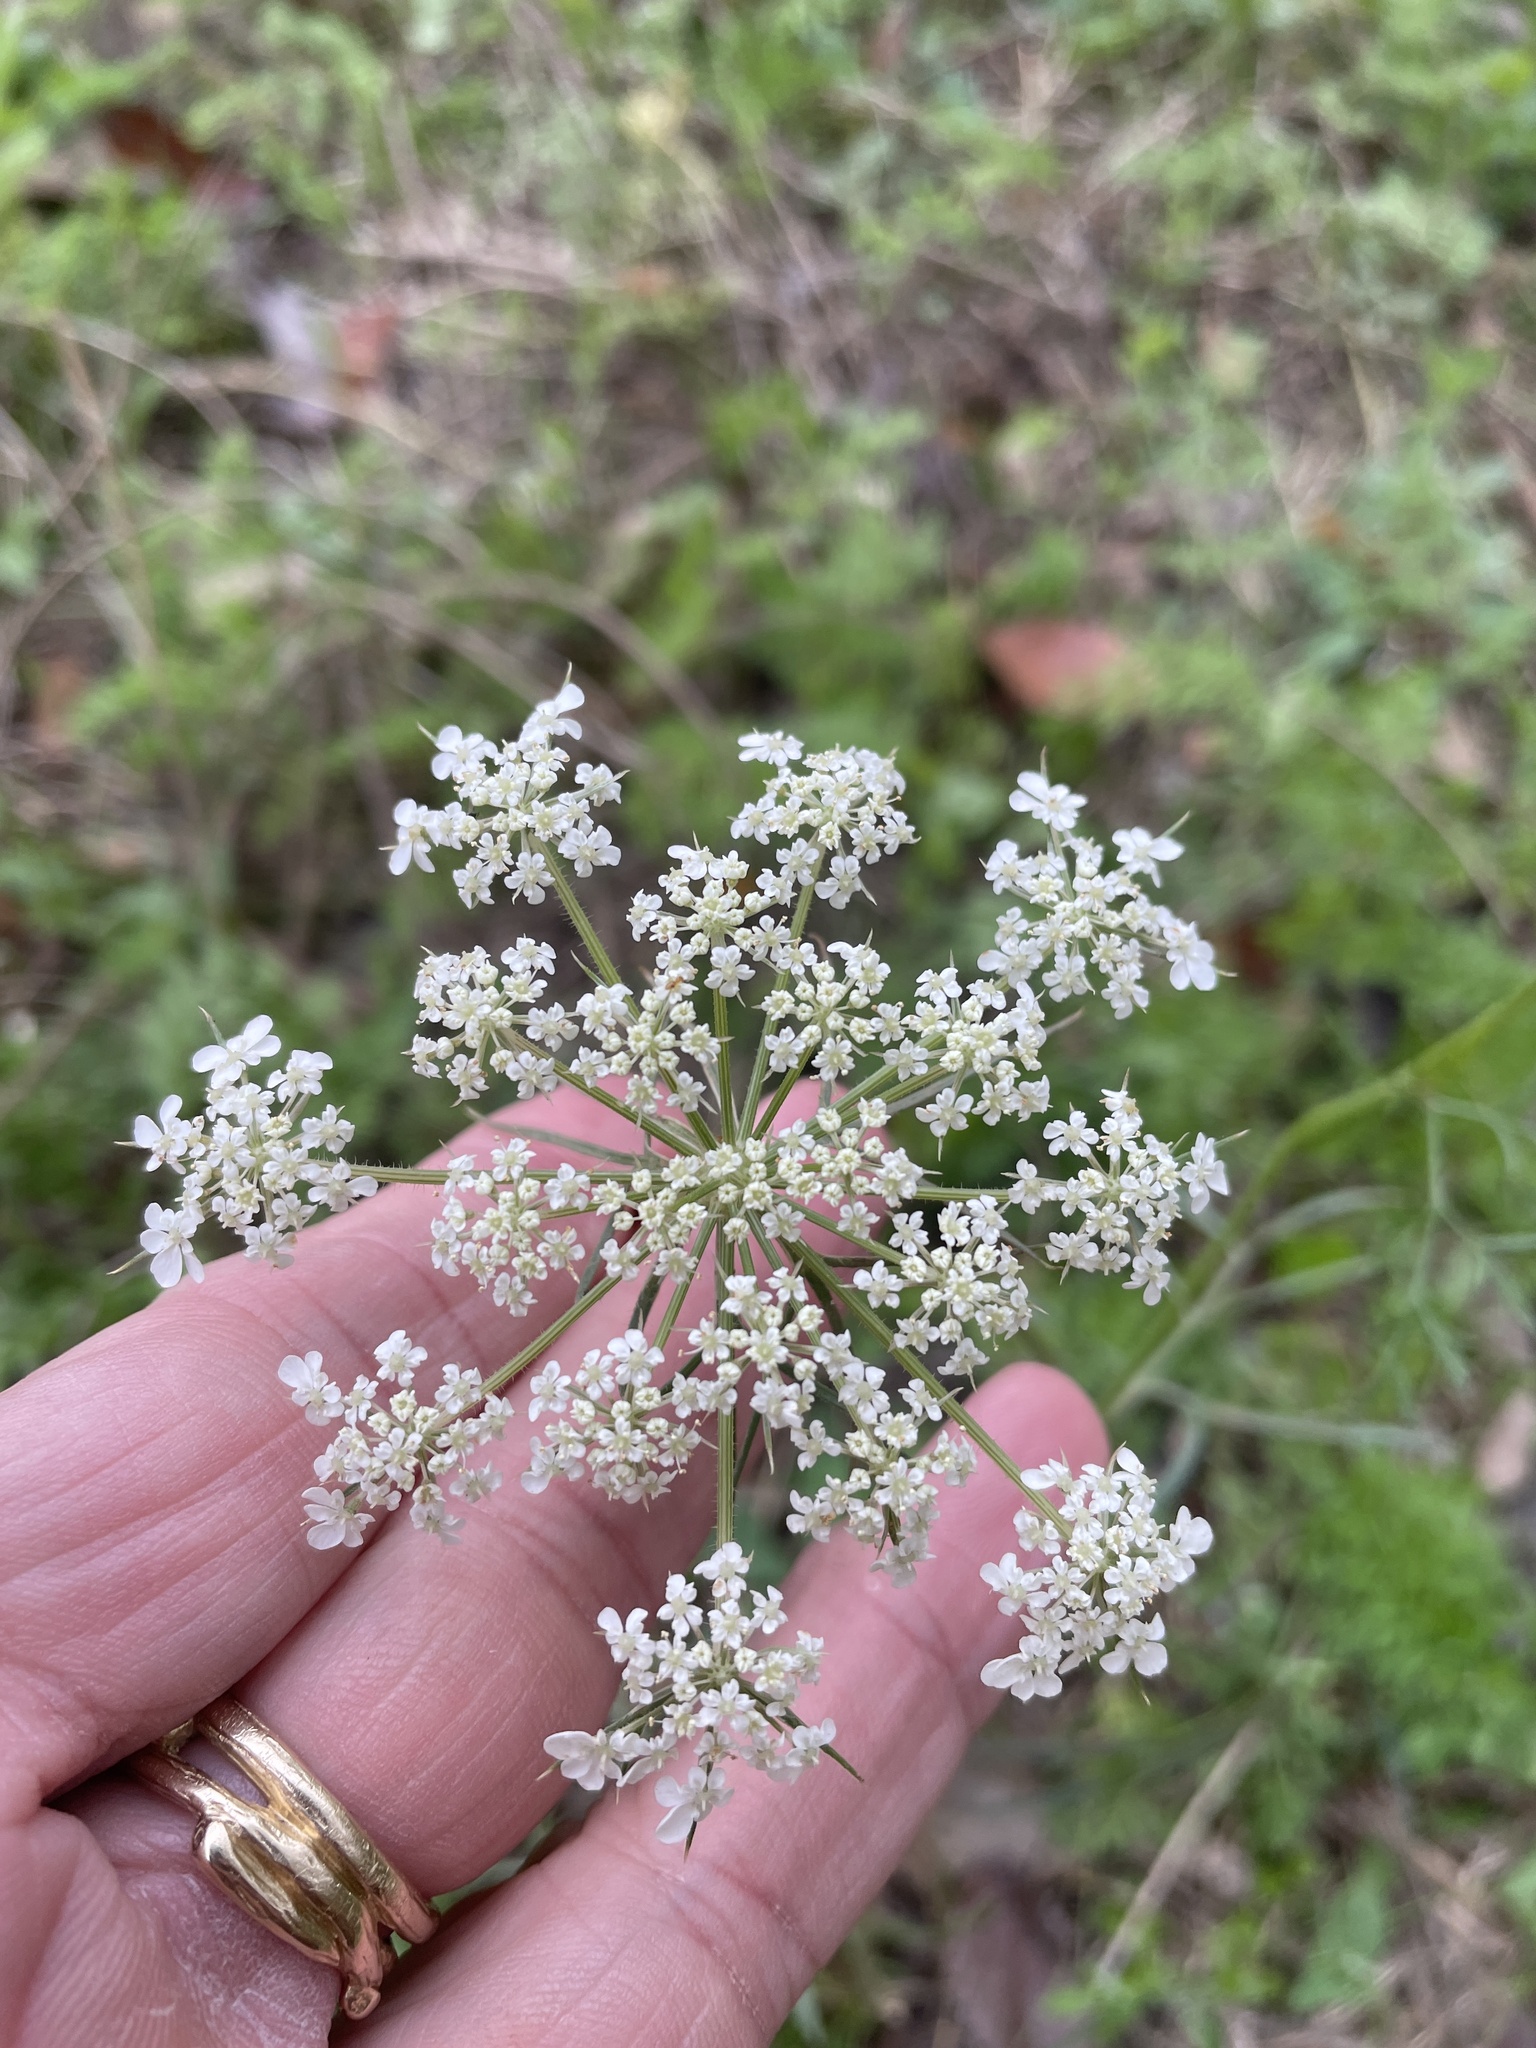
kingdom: Plantae
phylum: Tracheophyta
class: Magnoliopsida
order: Apiales
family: Apiaceae
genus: Daucus
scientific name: Daucus carota
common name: Wild carrot
